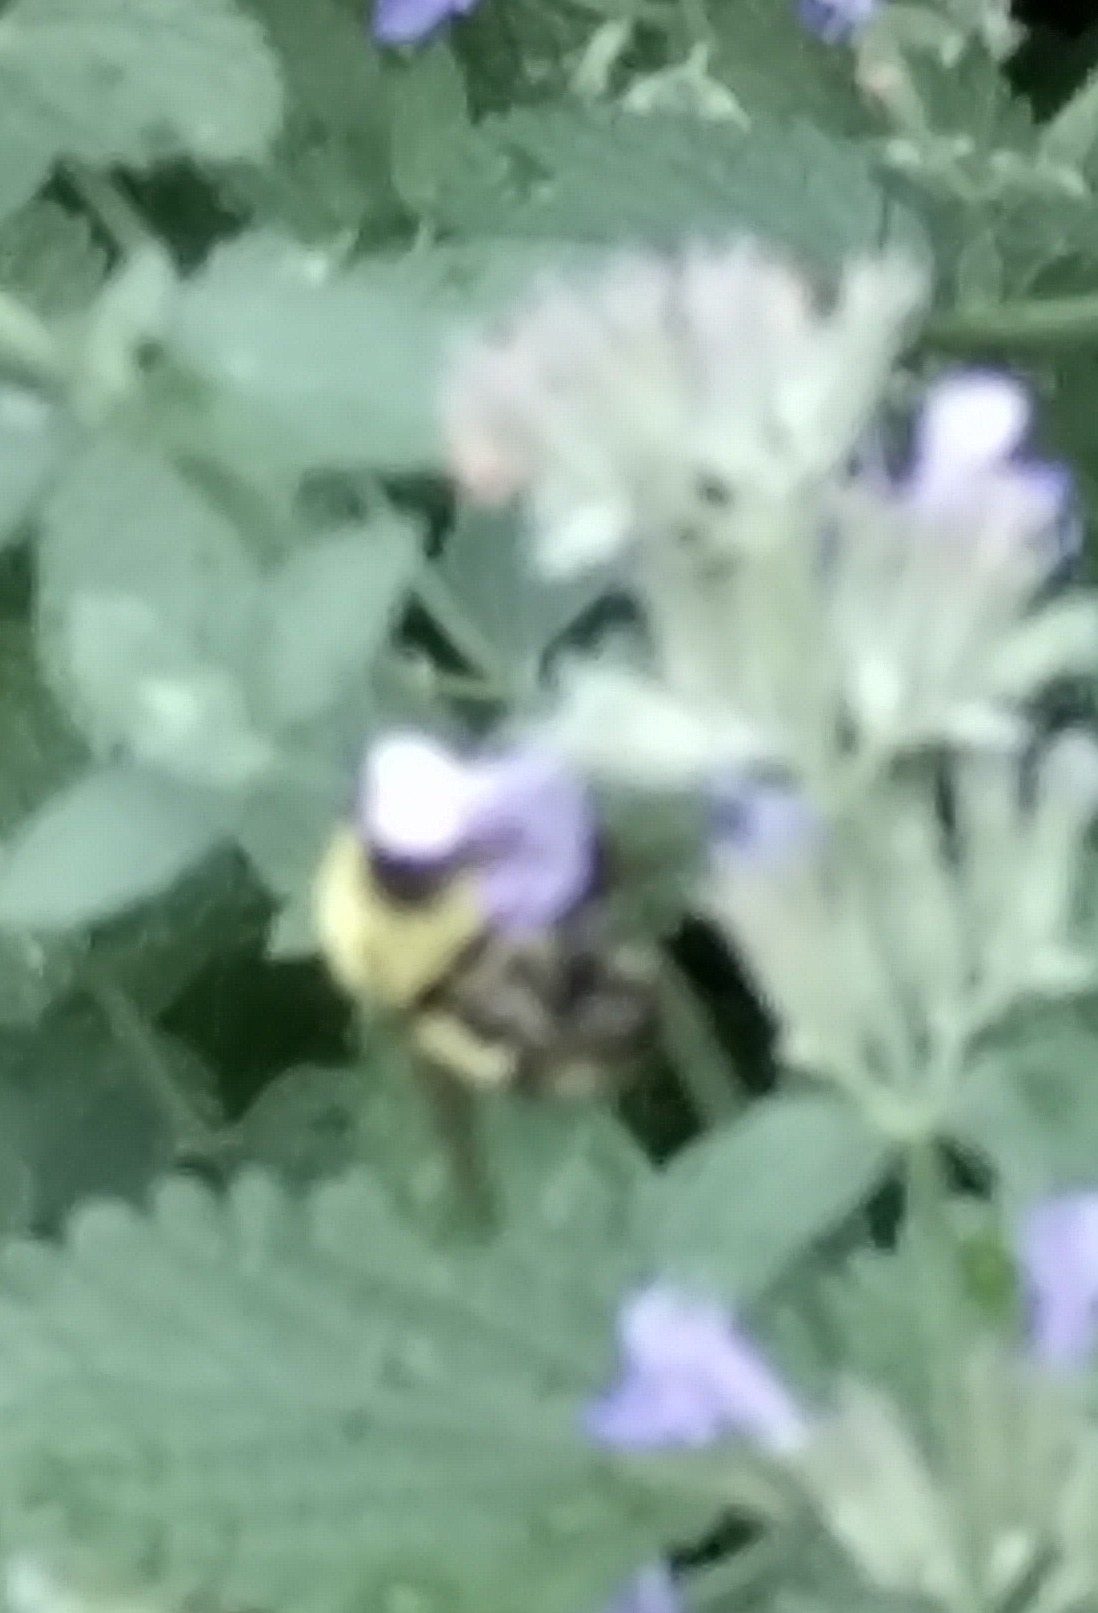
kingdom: Animalia
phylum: Arthropoda
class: Insecta
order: Hymenoptera
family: Apidae
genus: Pyrobombus
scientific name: Pyrobombus
